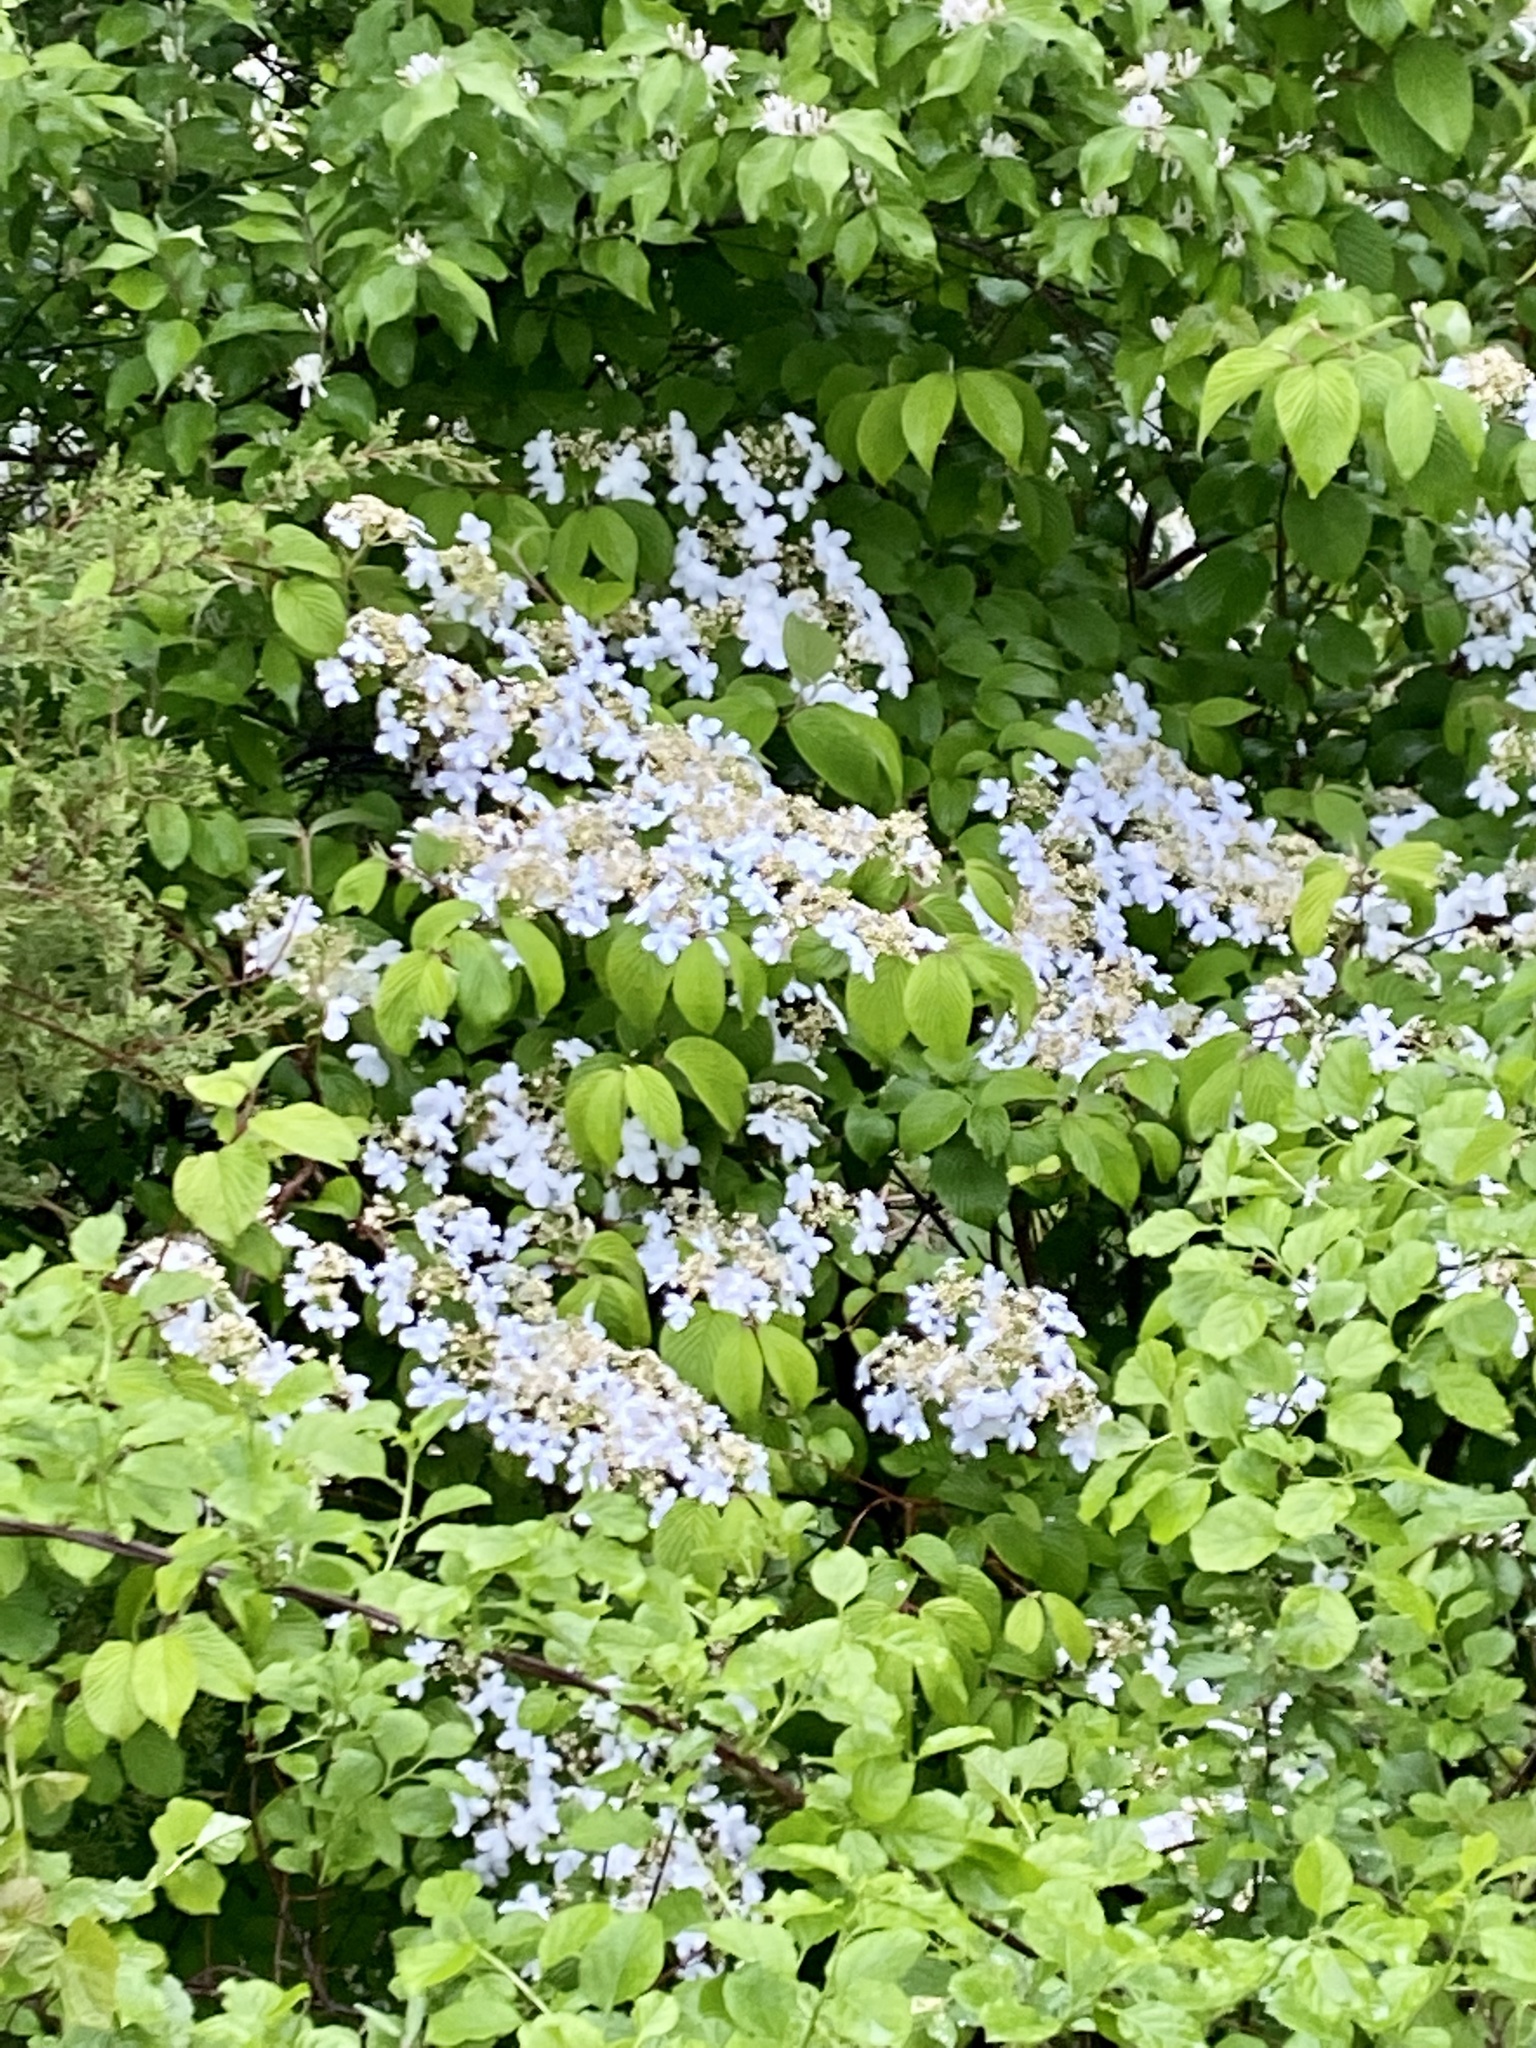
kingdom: Plantae
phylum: Tracheophyta
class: Magnoliopsida
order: Dipsacales
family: Viburnaceae
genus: Viburnum
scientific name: Viburnum plicatum
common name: Japanese snowball
